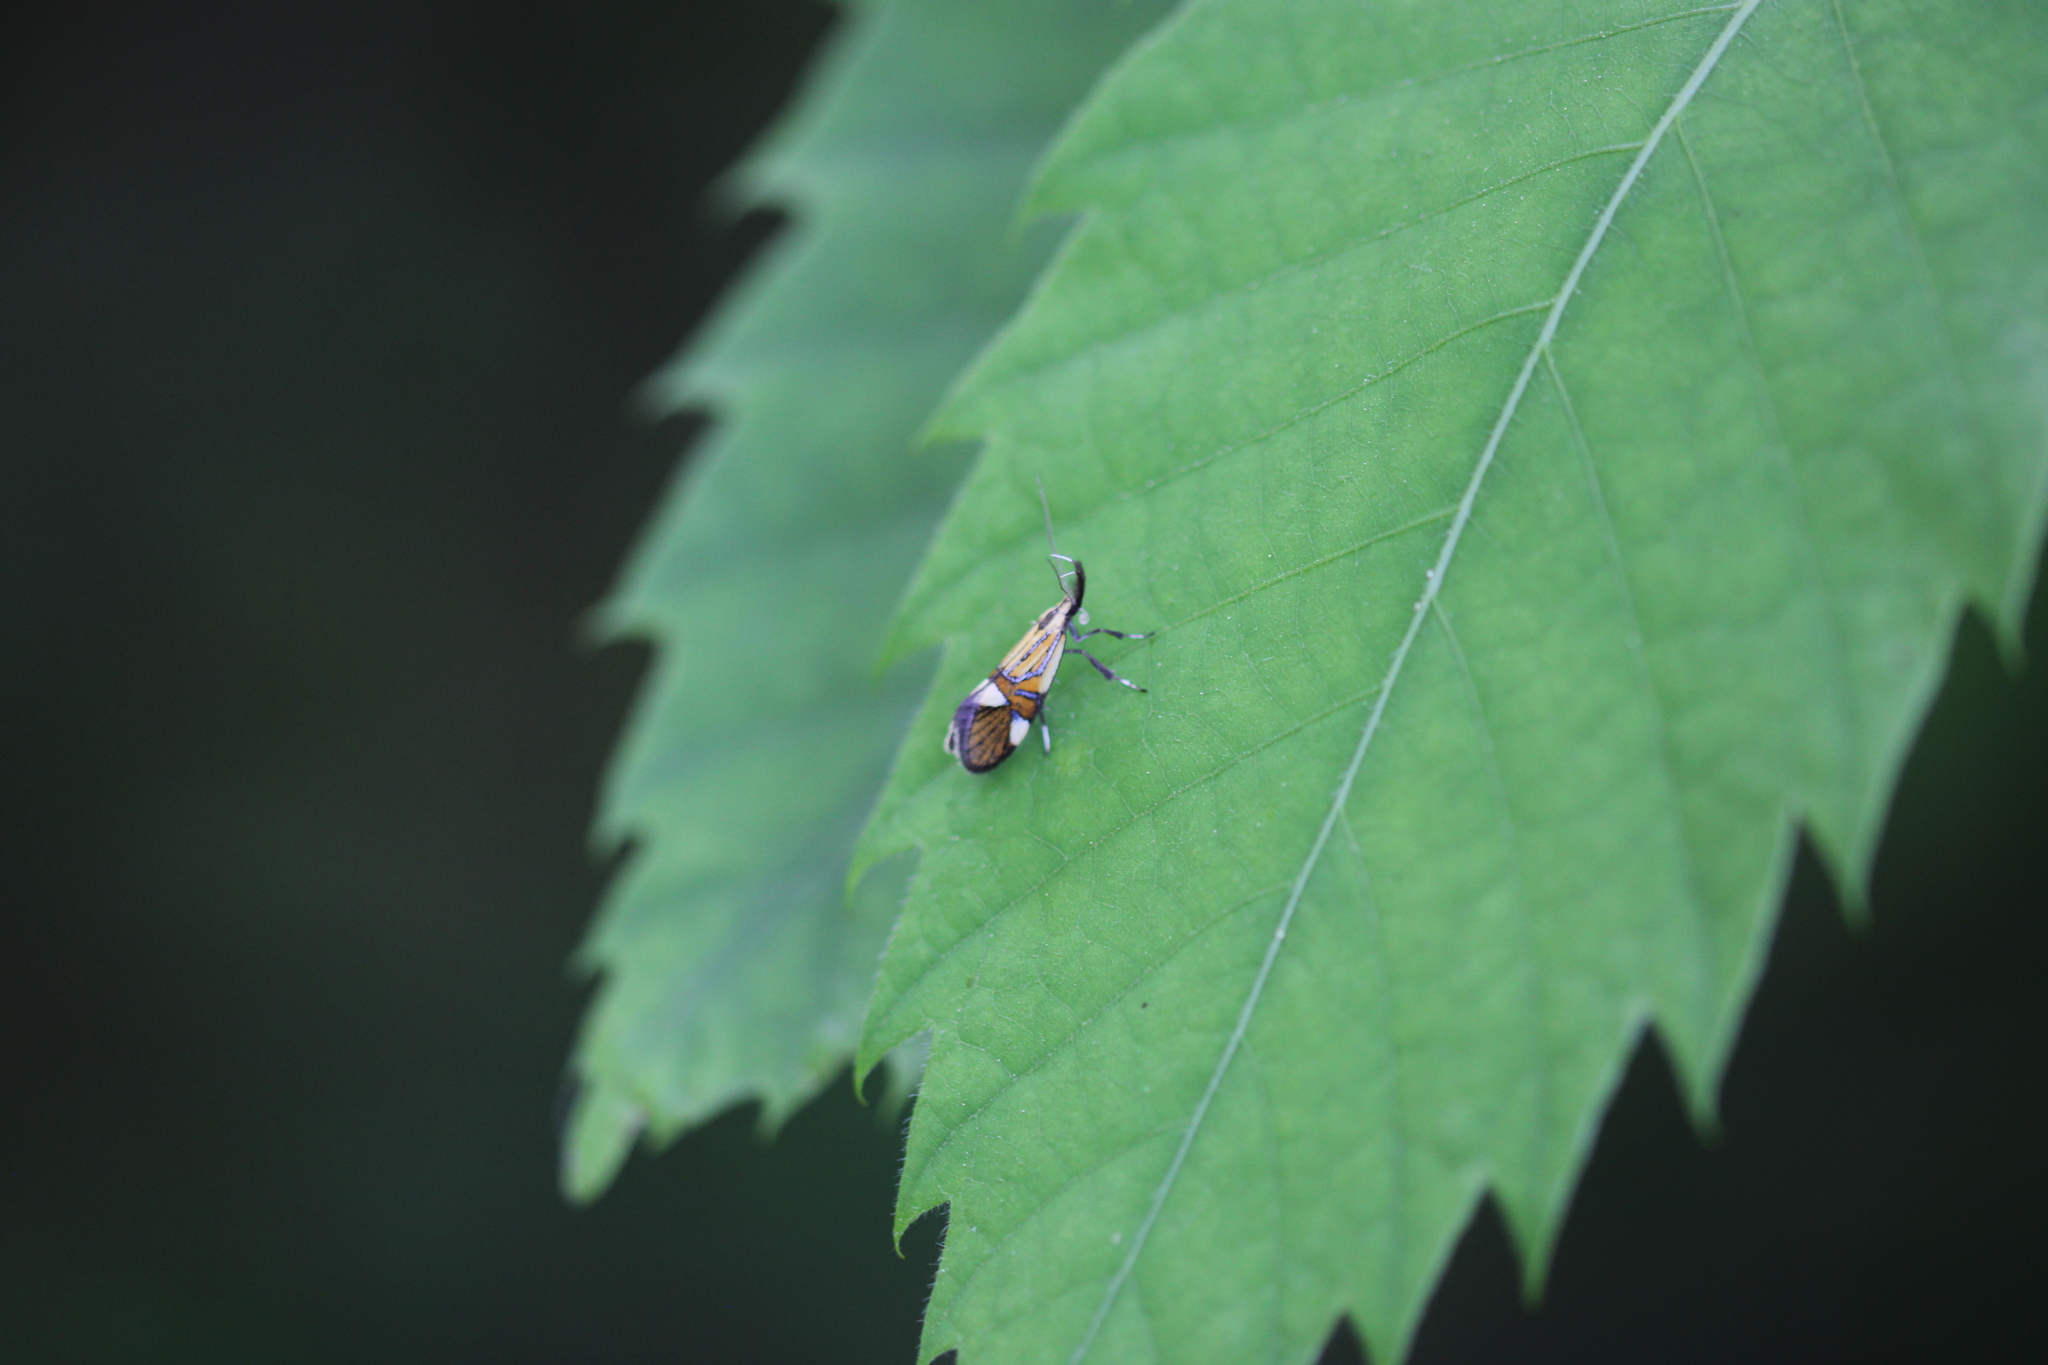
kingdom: Animalia
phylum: Arthropoda
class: Insecta
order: Lepidoptera
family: Oecophoridae
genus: Oecophora
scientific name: Oecophora Alabonia geoffrella
